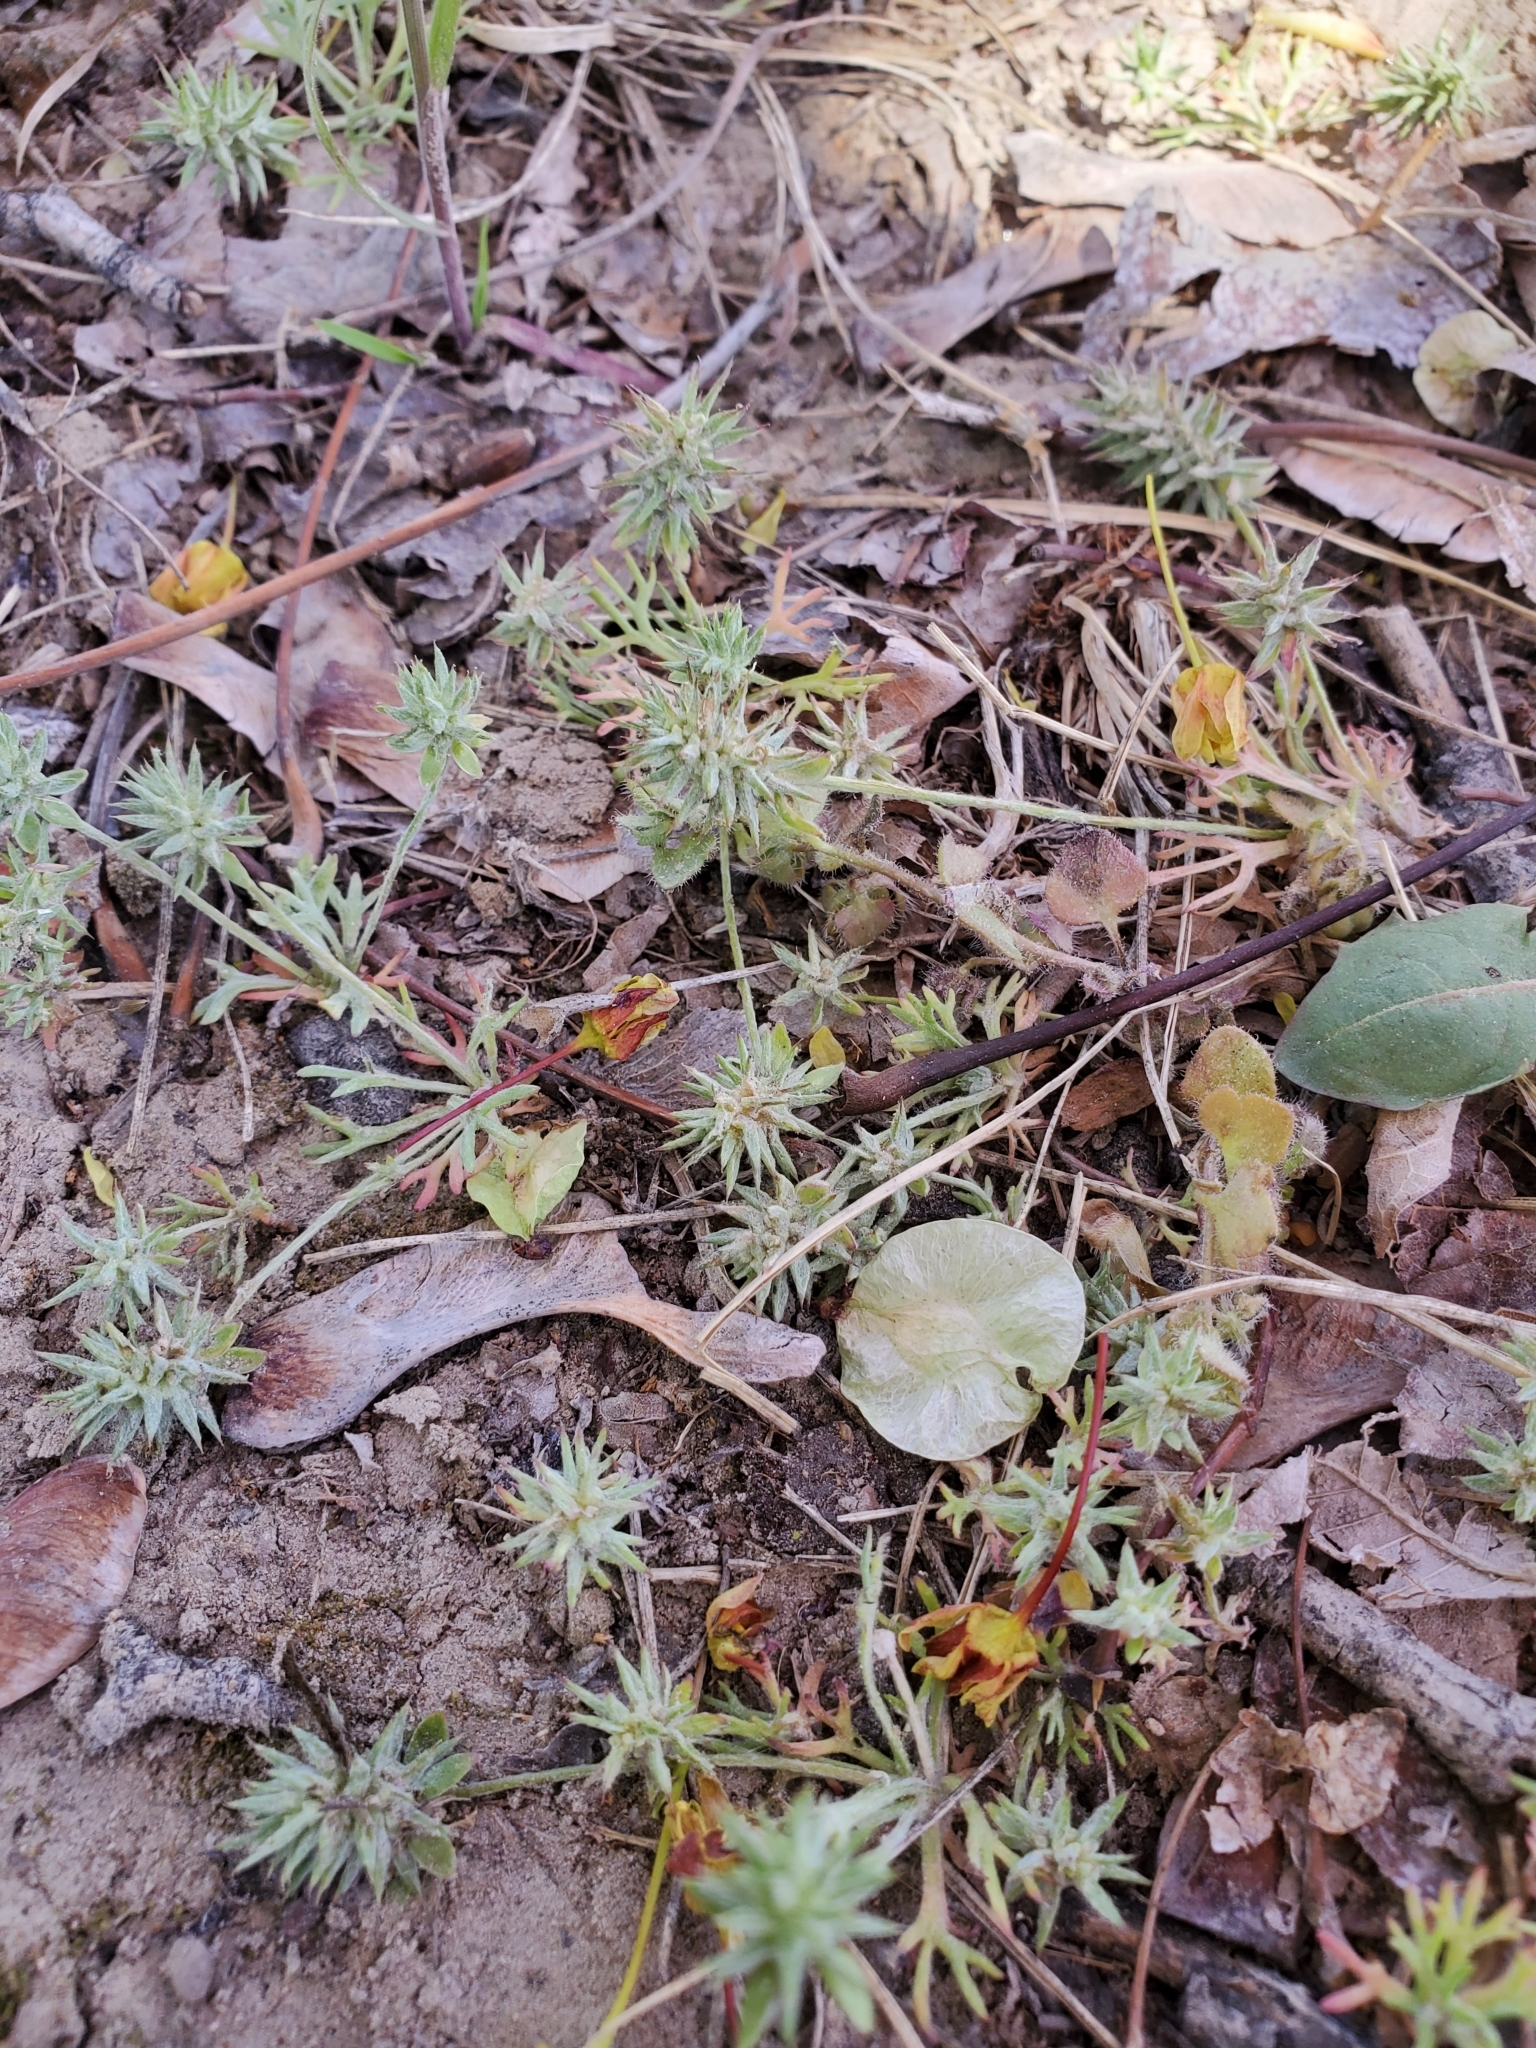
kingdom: Plantae
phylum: Tracheophyta
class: Magnoliopsida
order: Ranunculales
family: Ranunculaceae
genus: Ceratocephala
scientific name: Ceratocephala orthoceras
